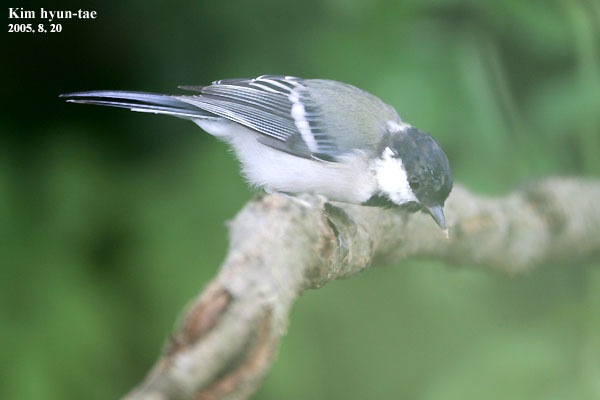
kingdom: Animalia
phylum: Chordata
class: Aves
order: Passeriformes
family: Paridae
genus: Parus
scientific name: Parus minor
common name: Japanese tit
